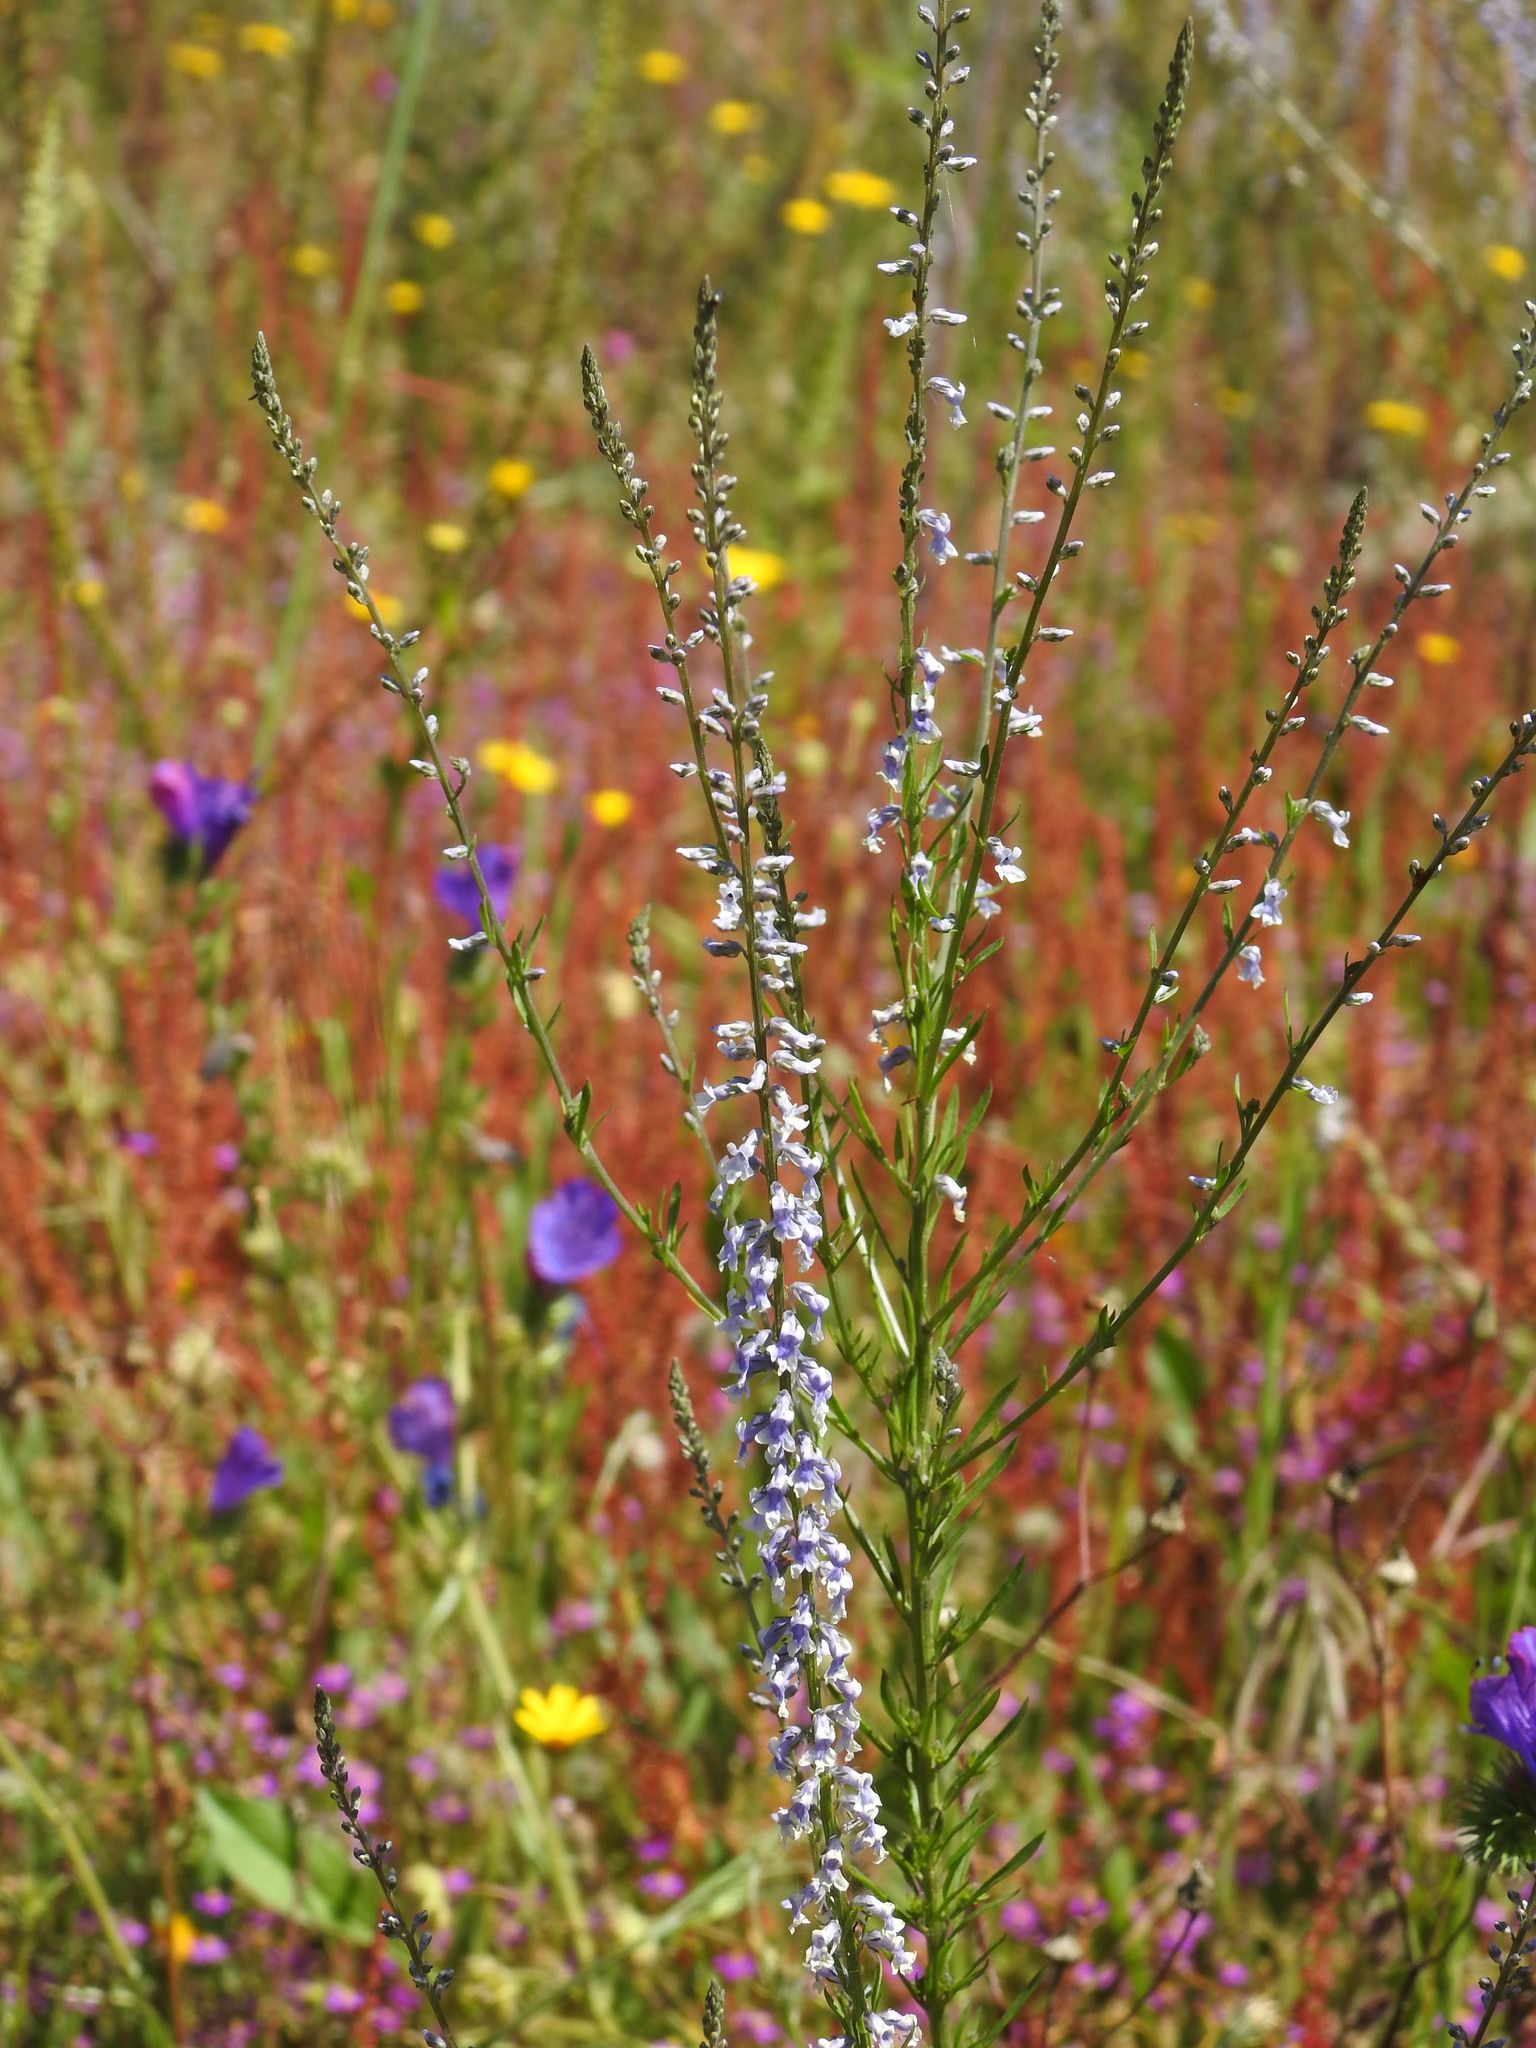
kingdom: Plantae
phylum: Tracheophyta
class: Magnoliopsida
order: Lamiales
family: Plantaginaceae
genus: Anarrhinum
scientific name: Anarrhinum bellidifolium
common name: Daisy-leaved toadflax
